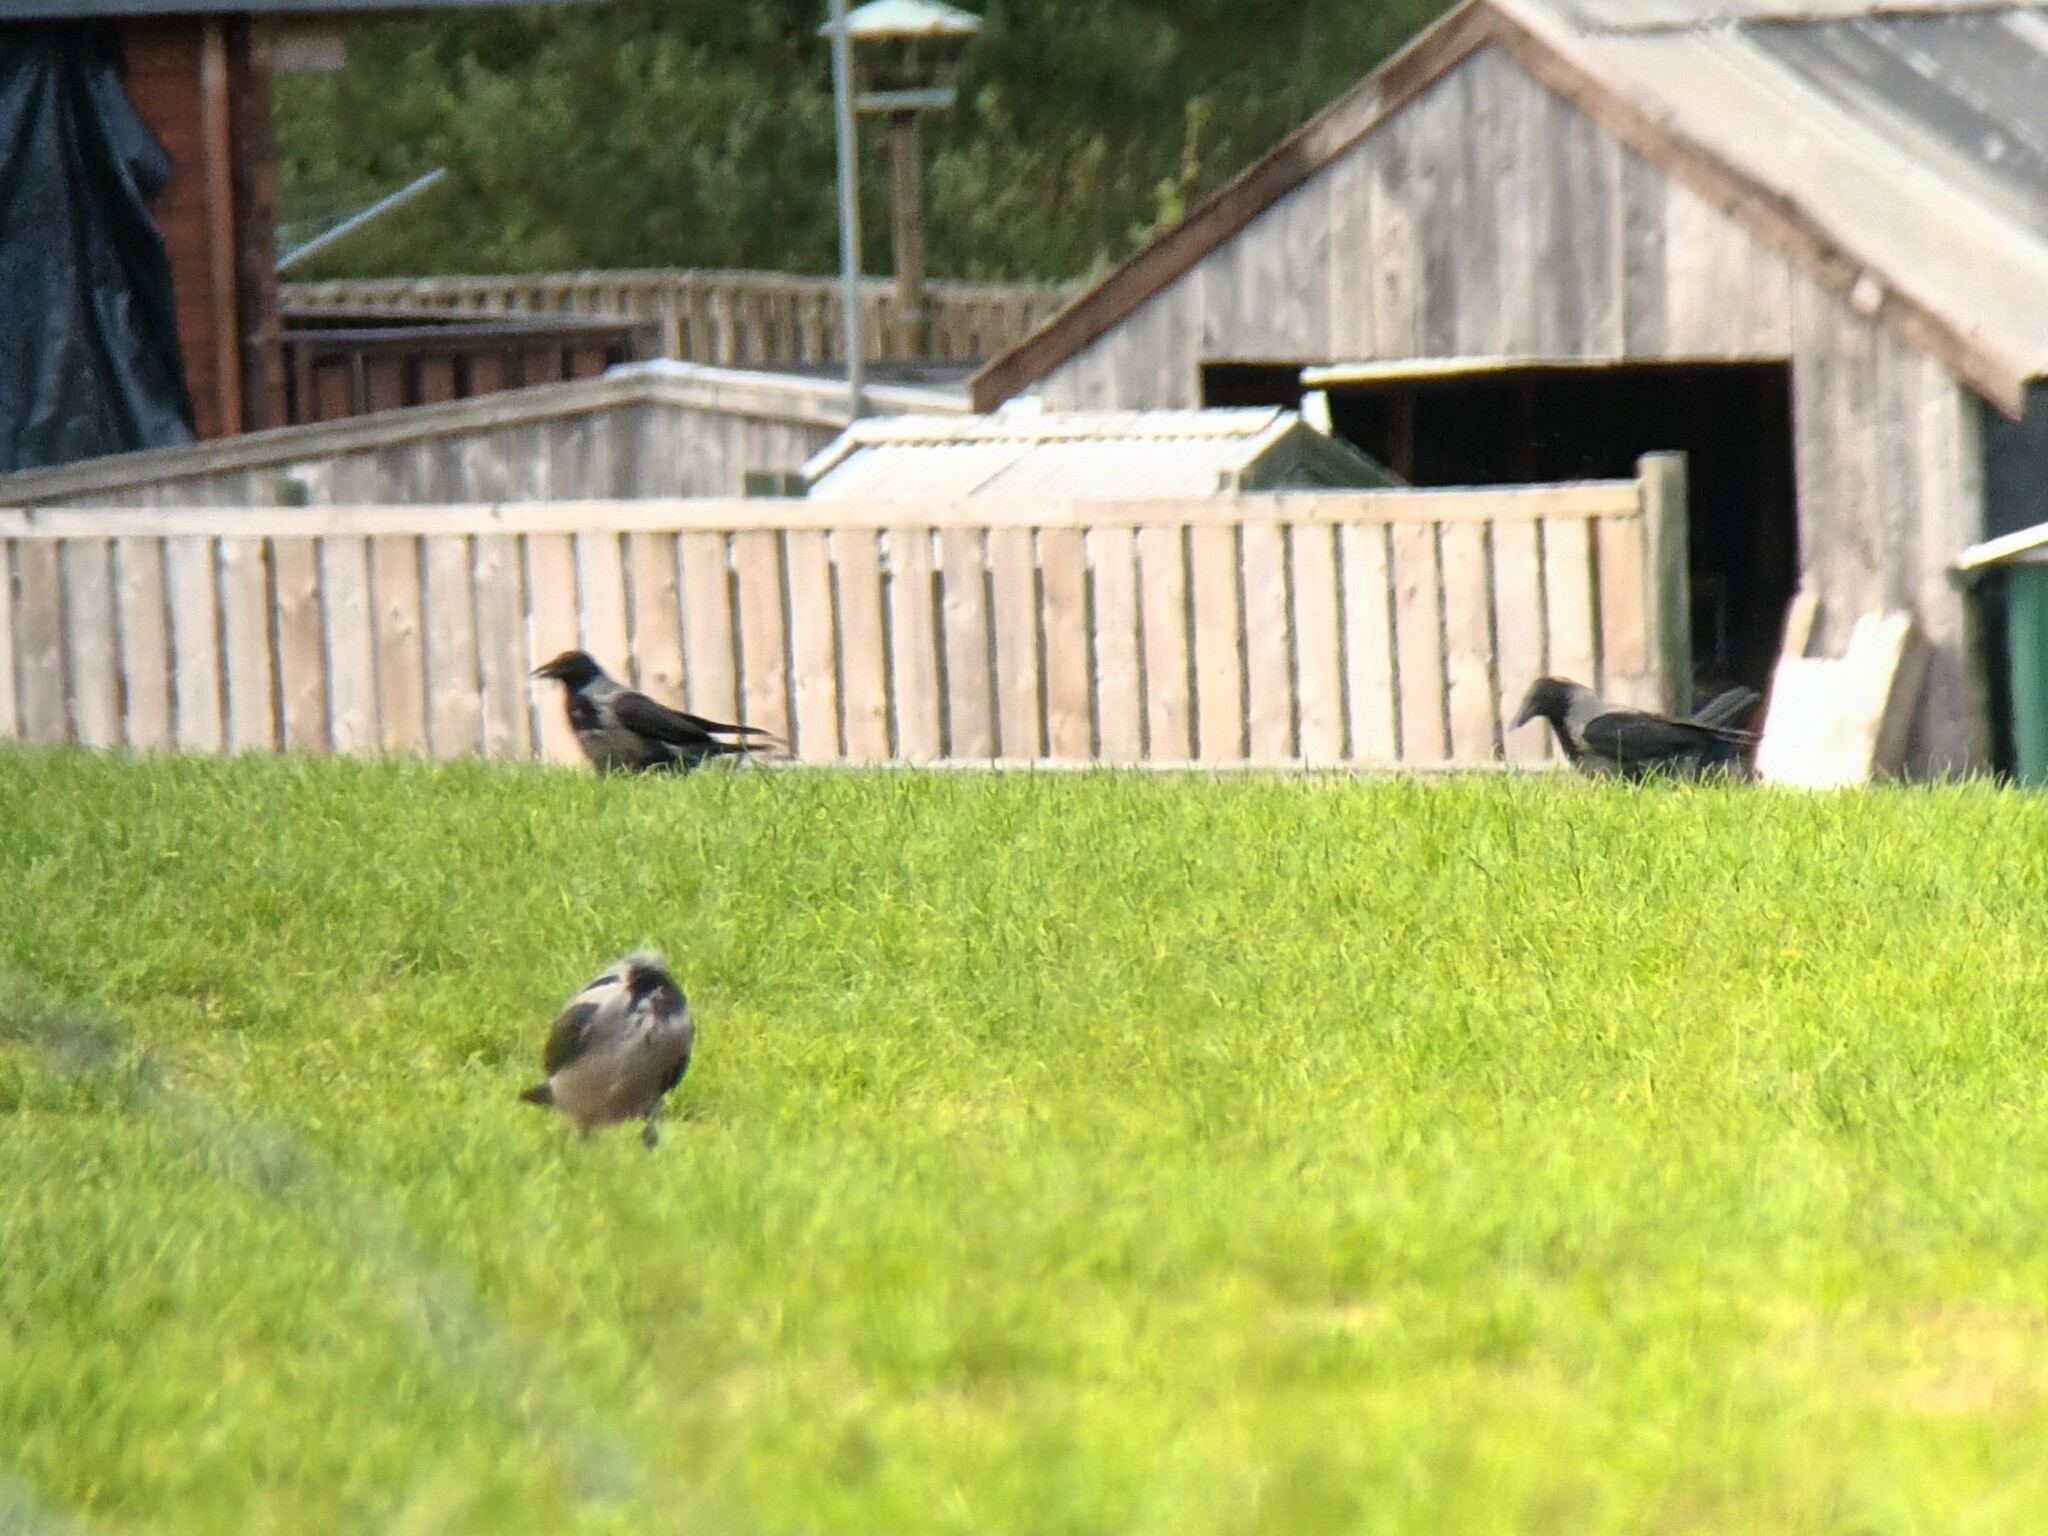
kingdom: Animalia
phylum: Chordata
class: Aves
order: Passeriformes
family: Corvidae
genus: Corvus
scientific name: Corvus cornix
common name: Hooded crow
